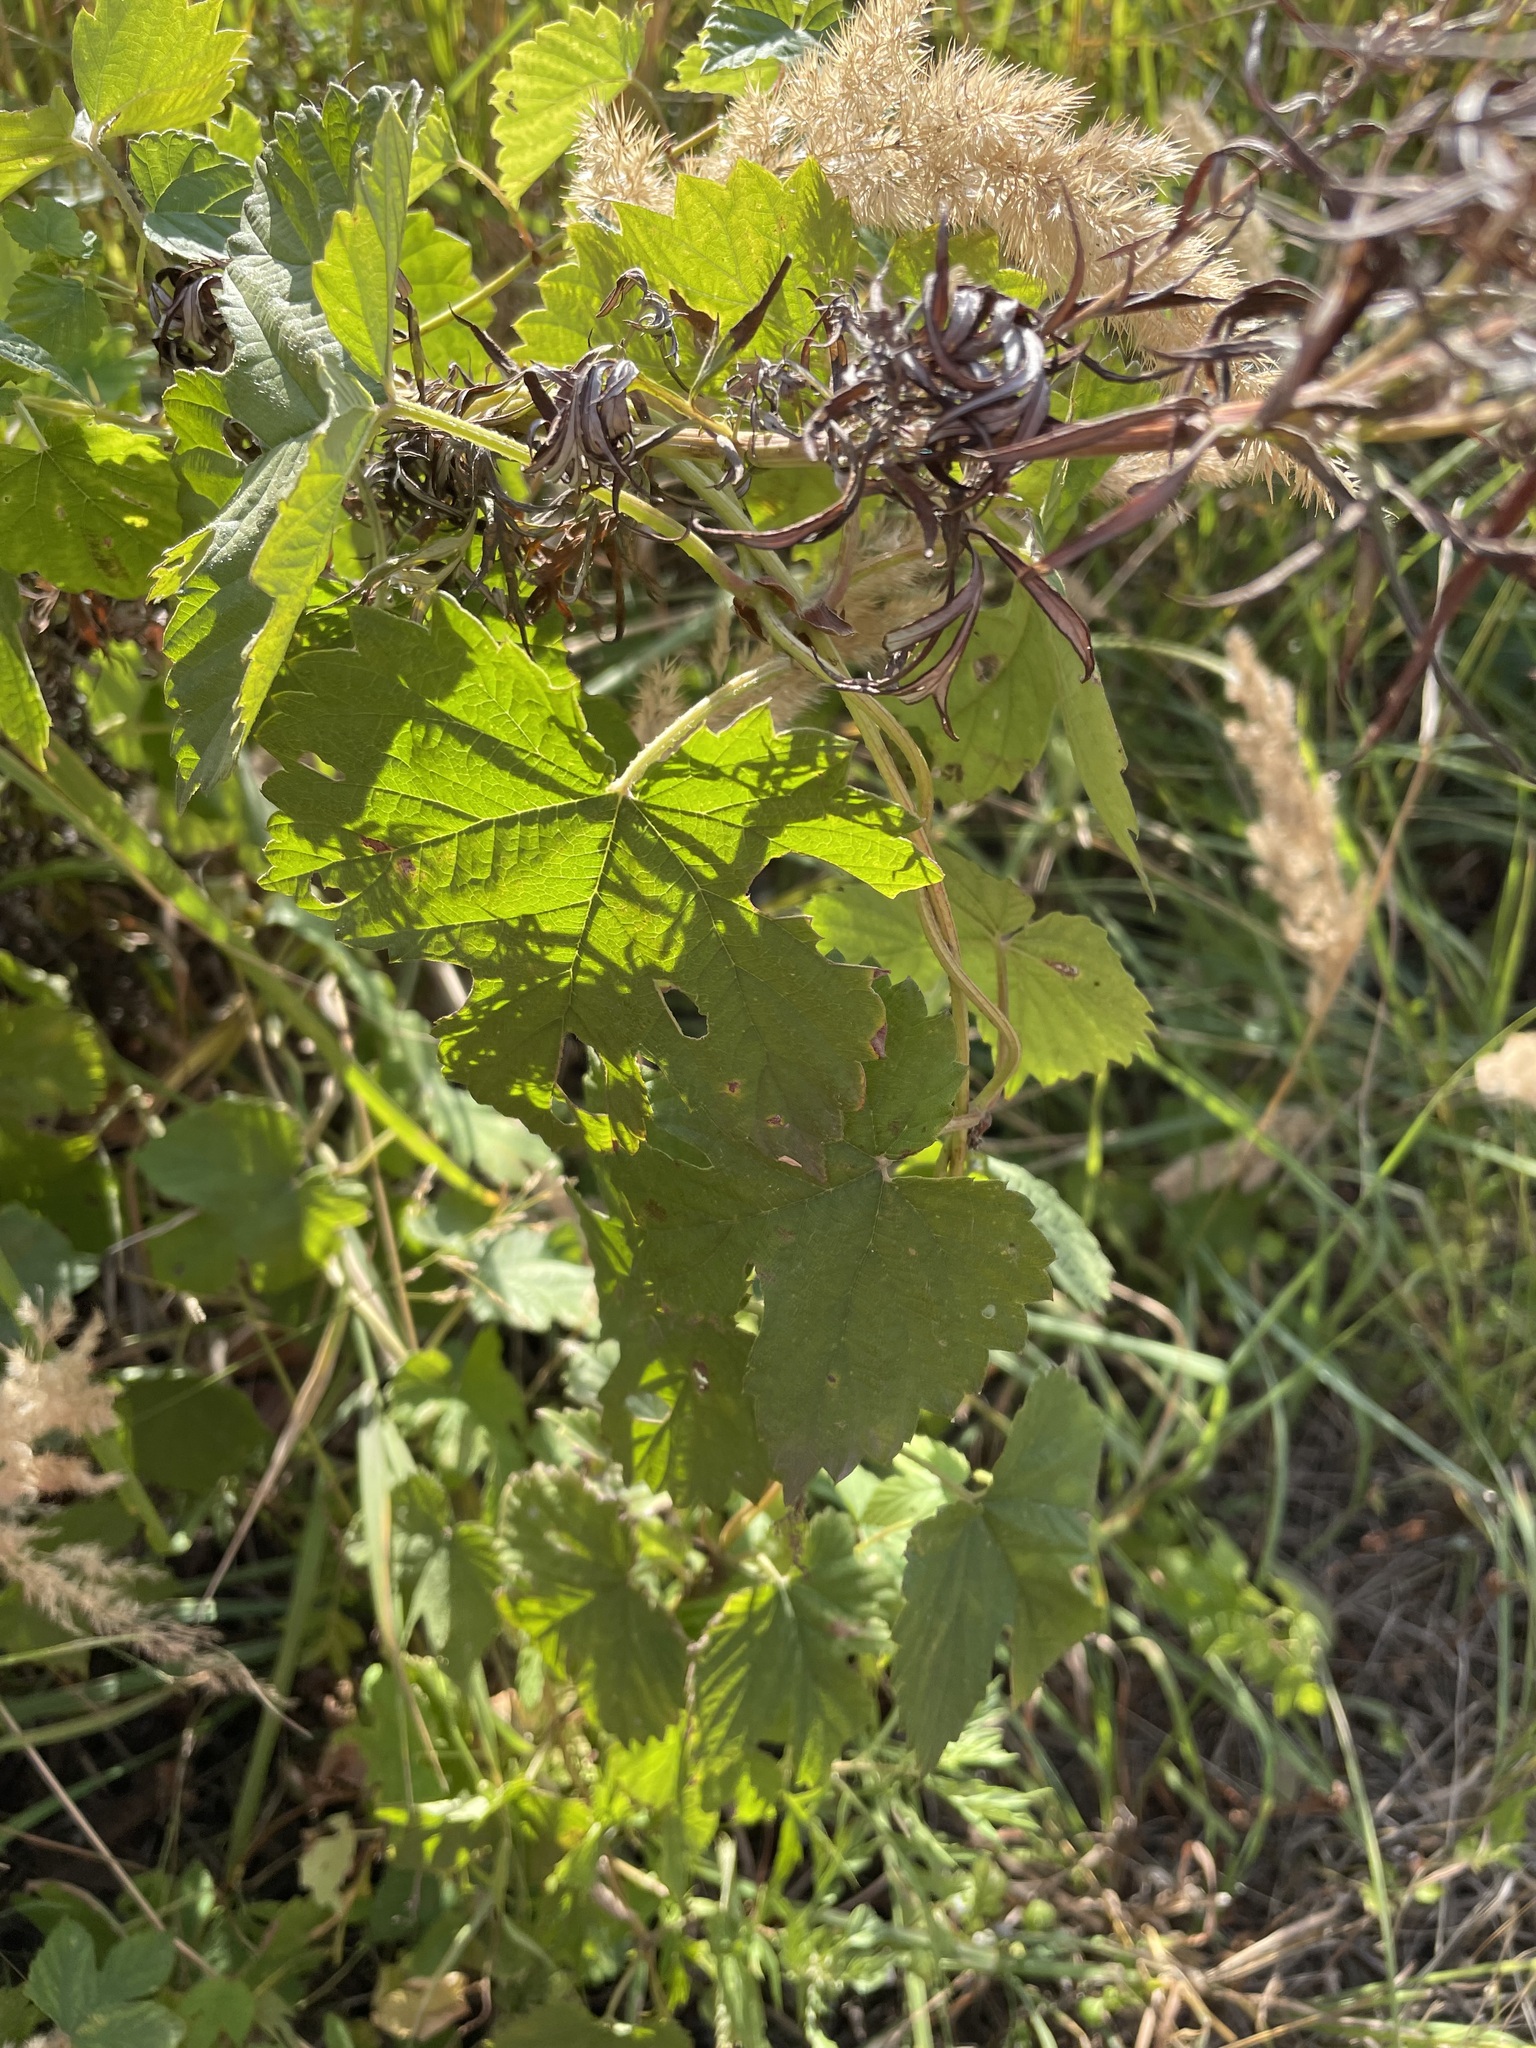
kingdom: Plantae
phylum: Tracheophyta
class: Magnoliopsida
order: Rosales
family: Cannabaceae
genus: Humulus
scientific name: Humulus lupulus
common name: Hop
